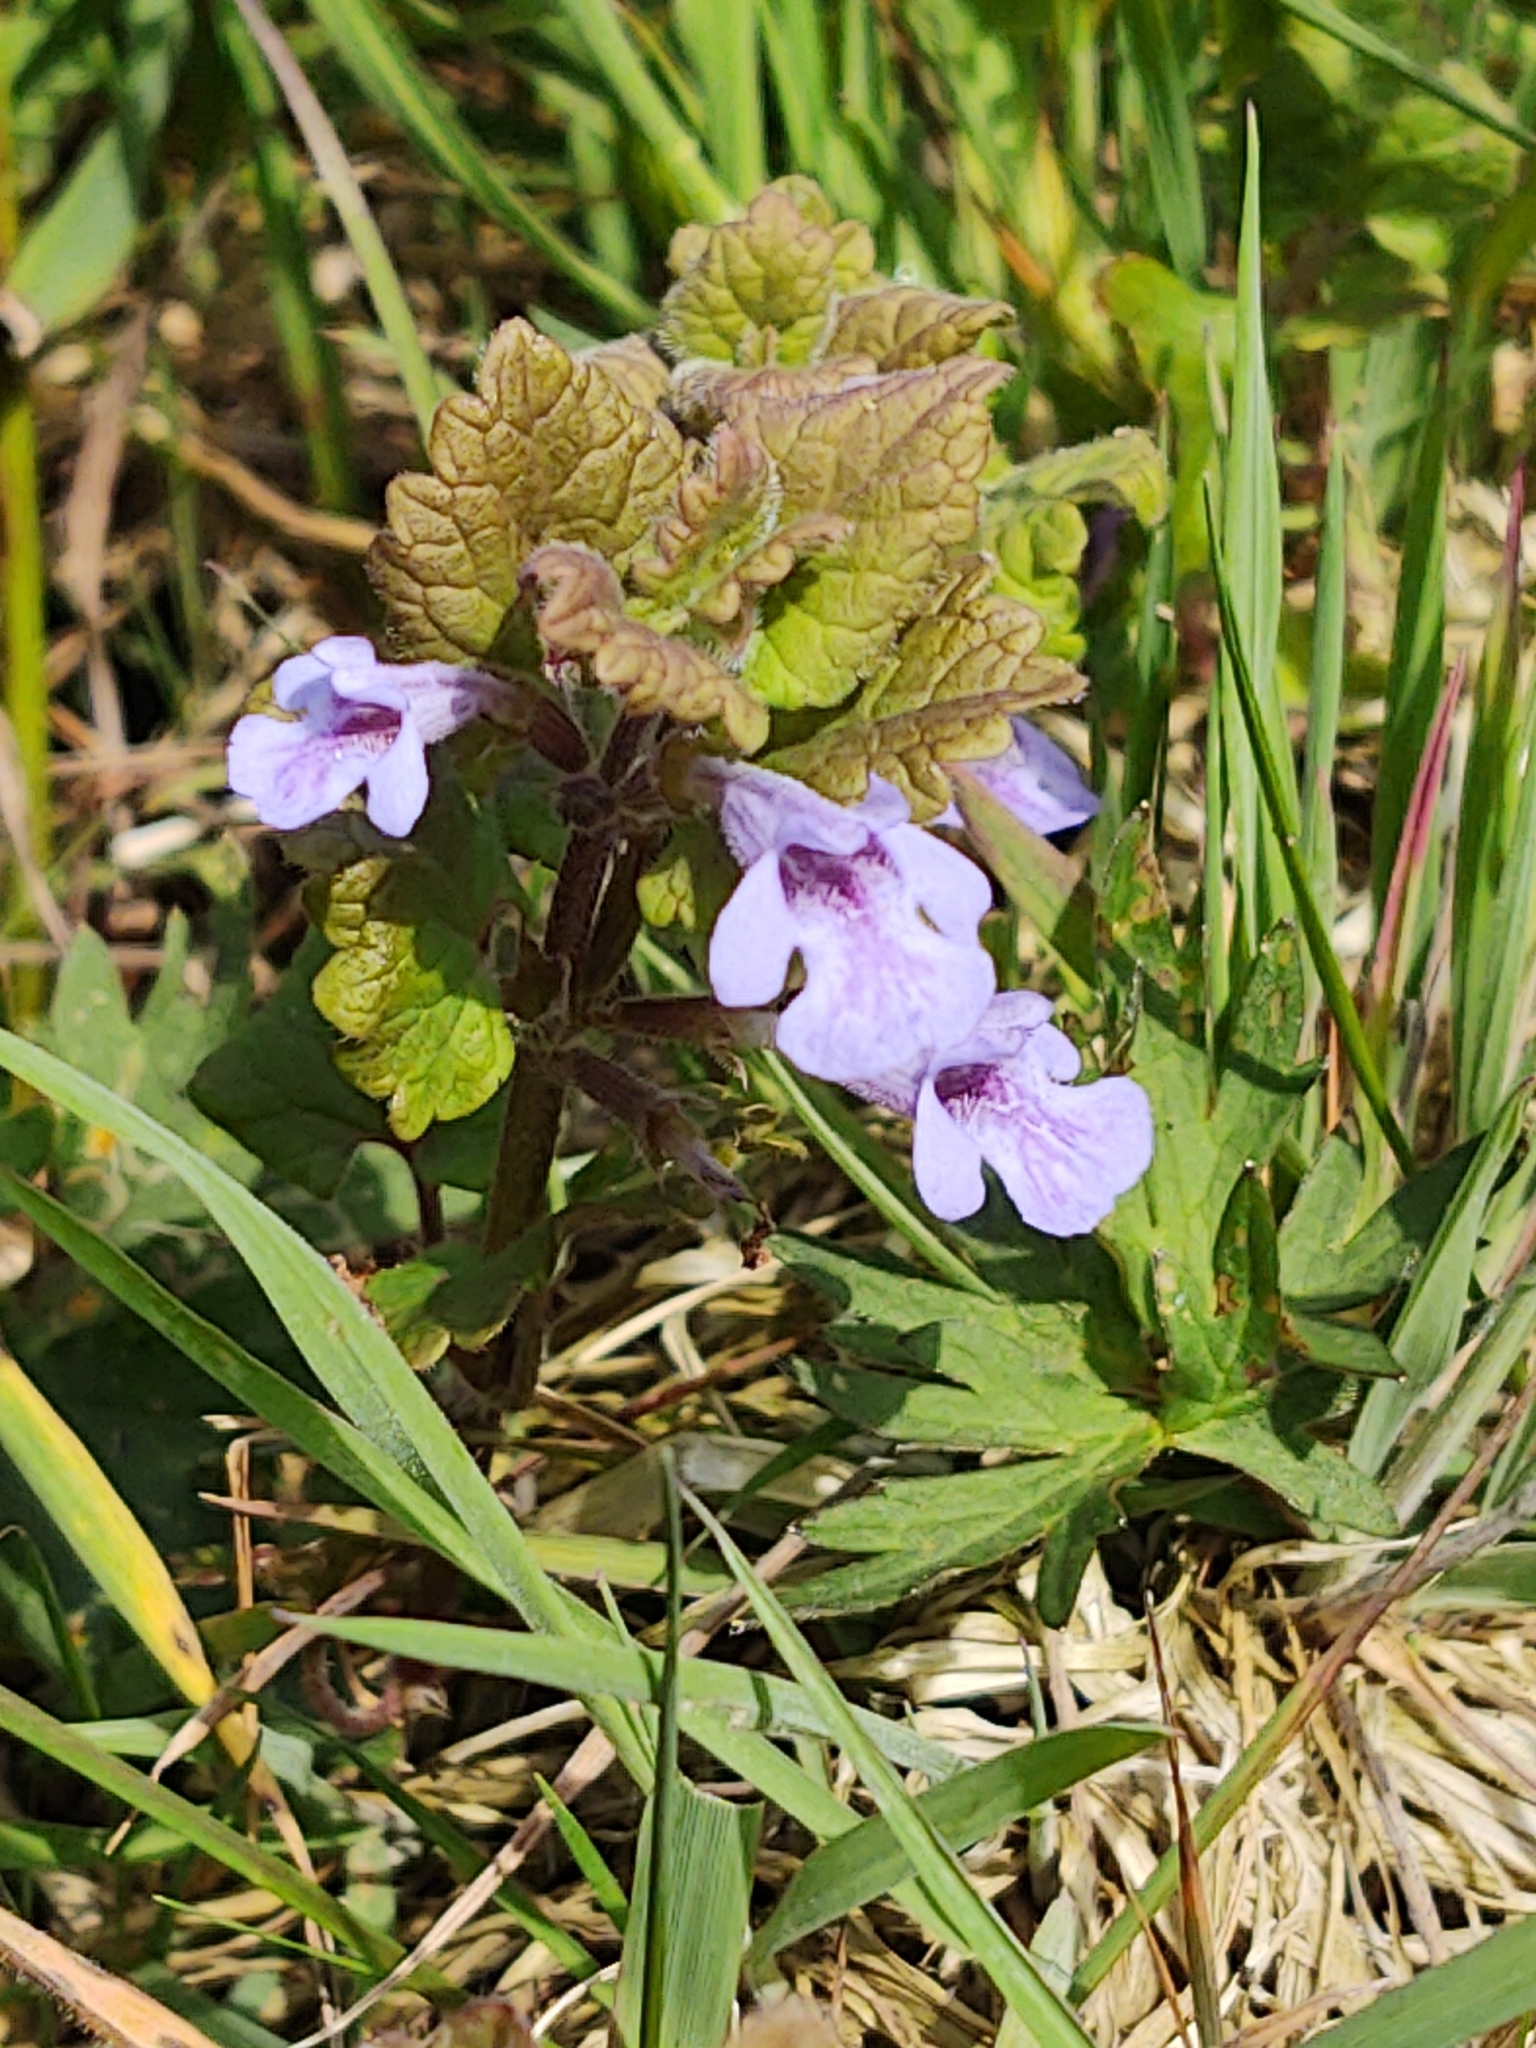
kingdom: Plantae
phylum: Tracheophyta
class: Magnoliopsida
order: Lamiales
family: Lamiaceae
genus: Glechoma
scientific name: Glechoma hederacea
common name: Ground ivy
